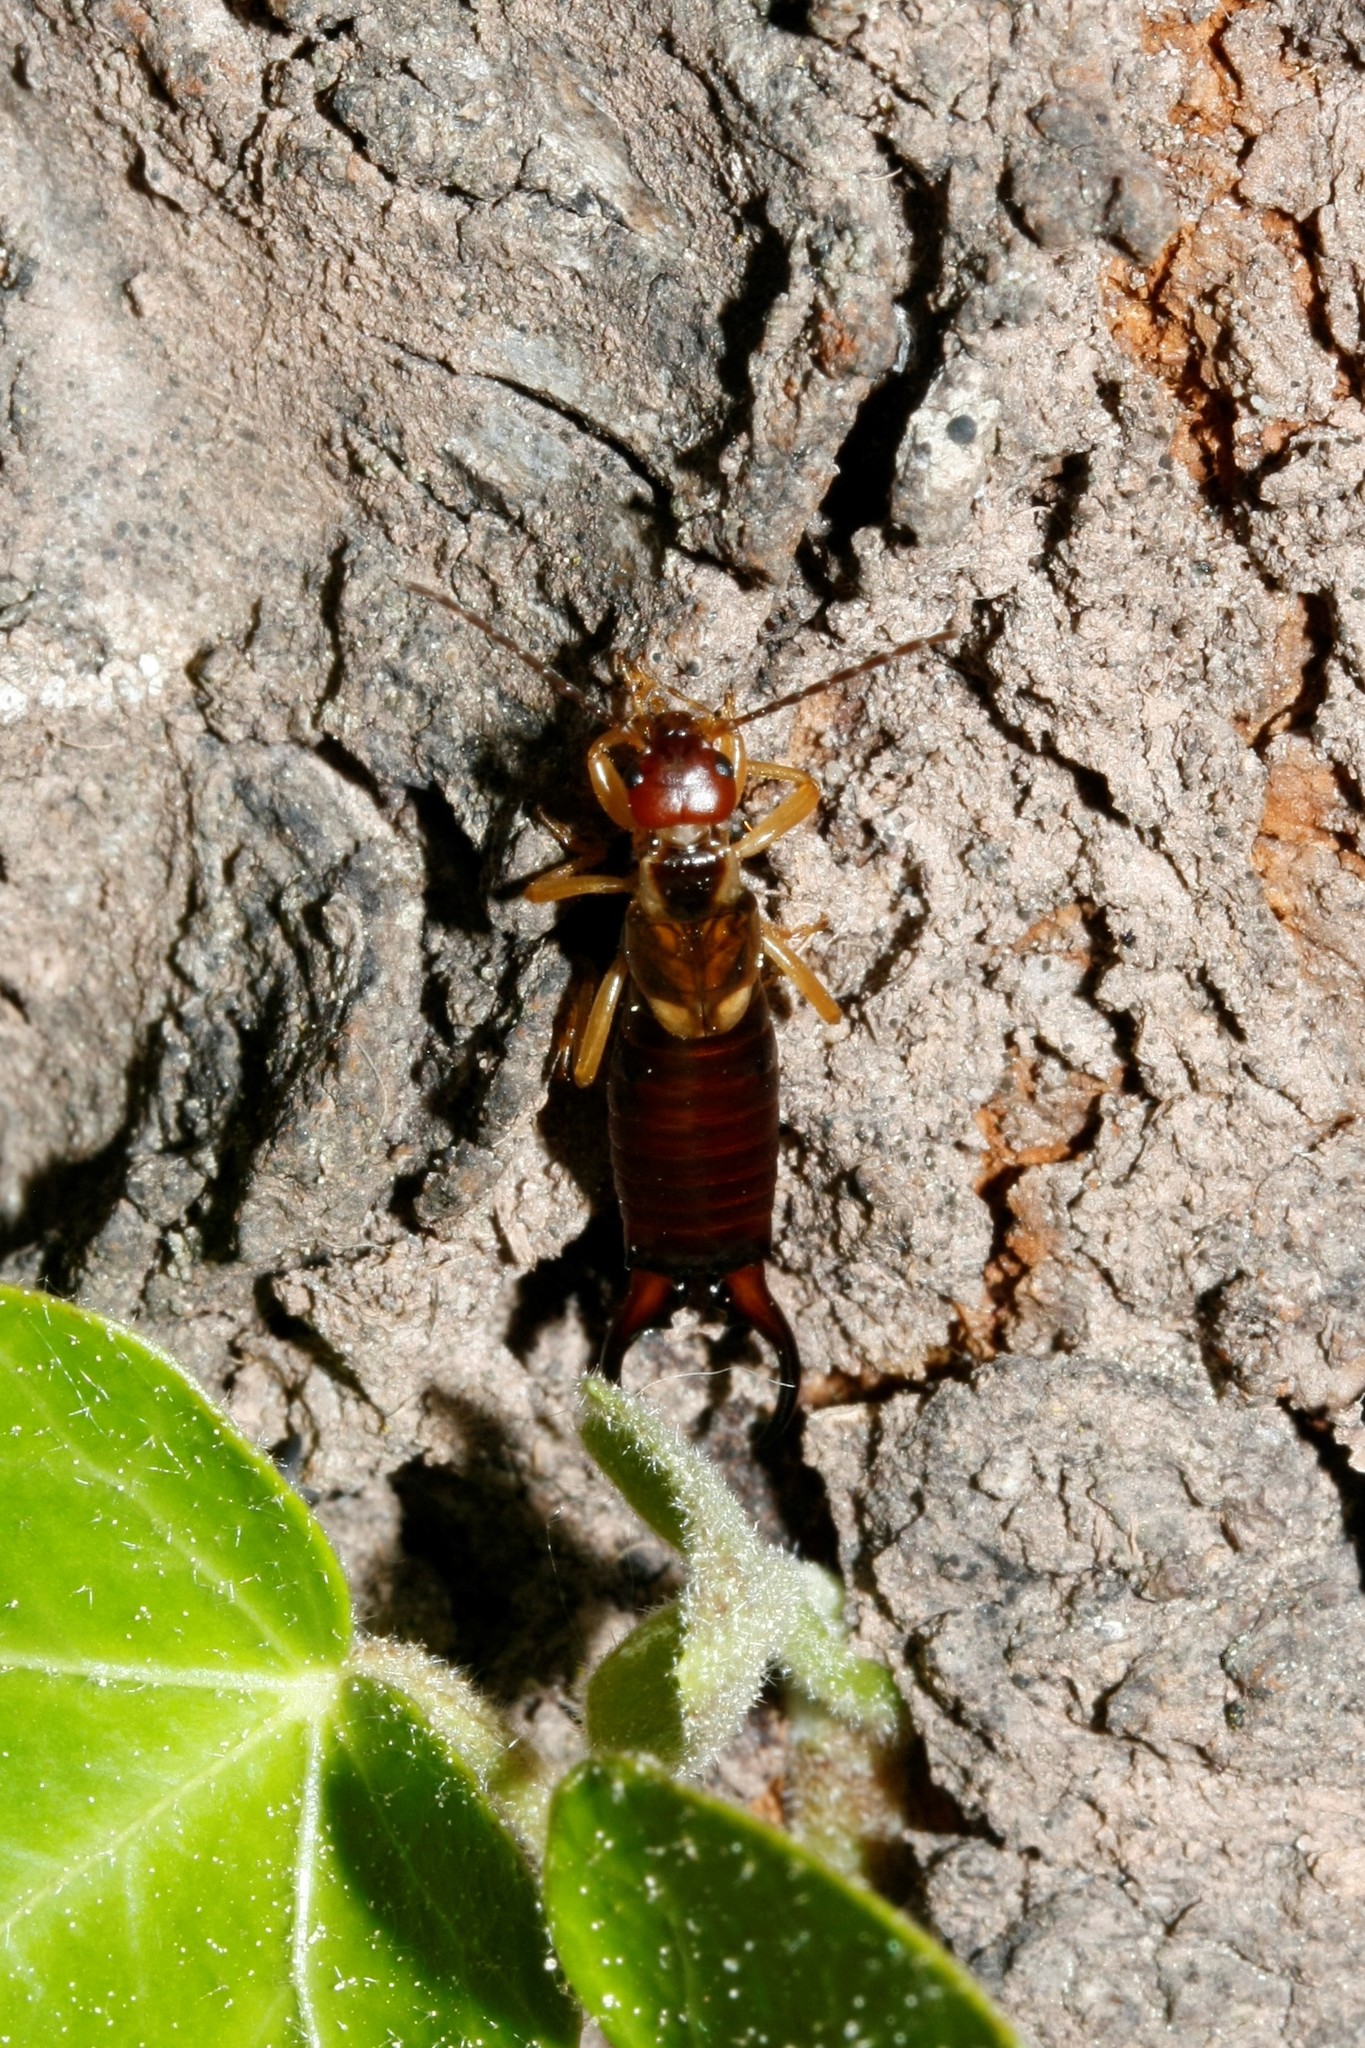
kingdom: Animalia
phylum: Arthropoda
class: Insecta
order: Dermaptera
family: Forficulidae
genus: Forficula
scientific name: Forficula
